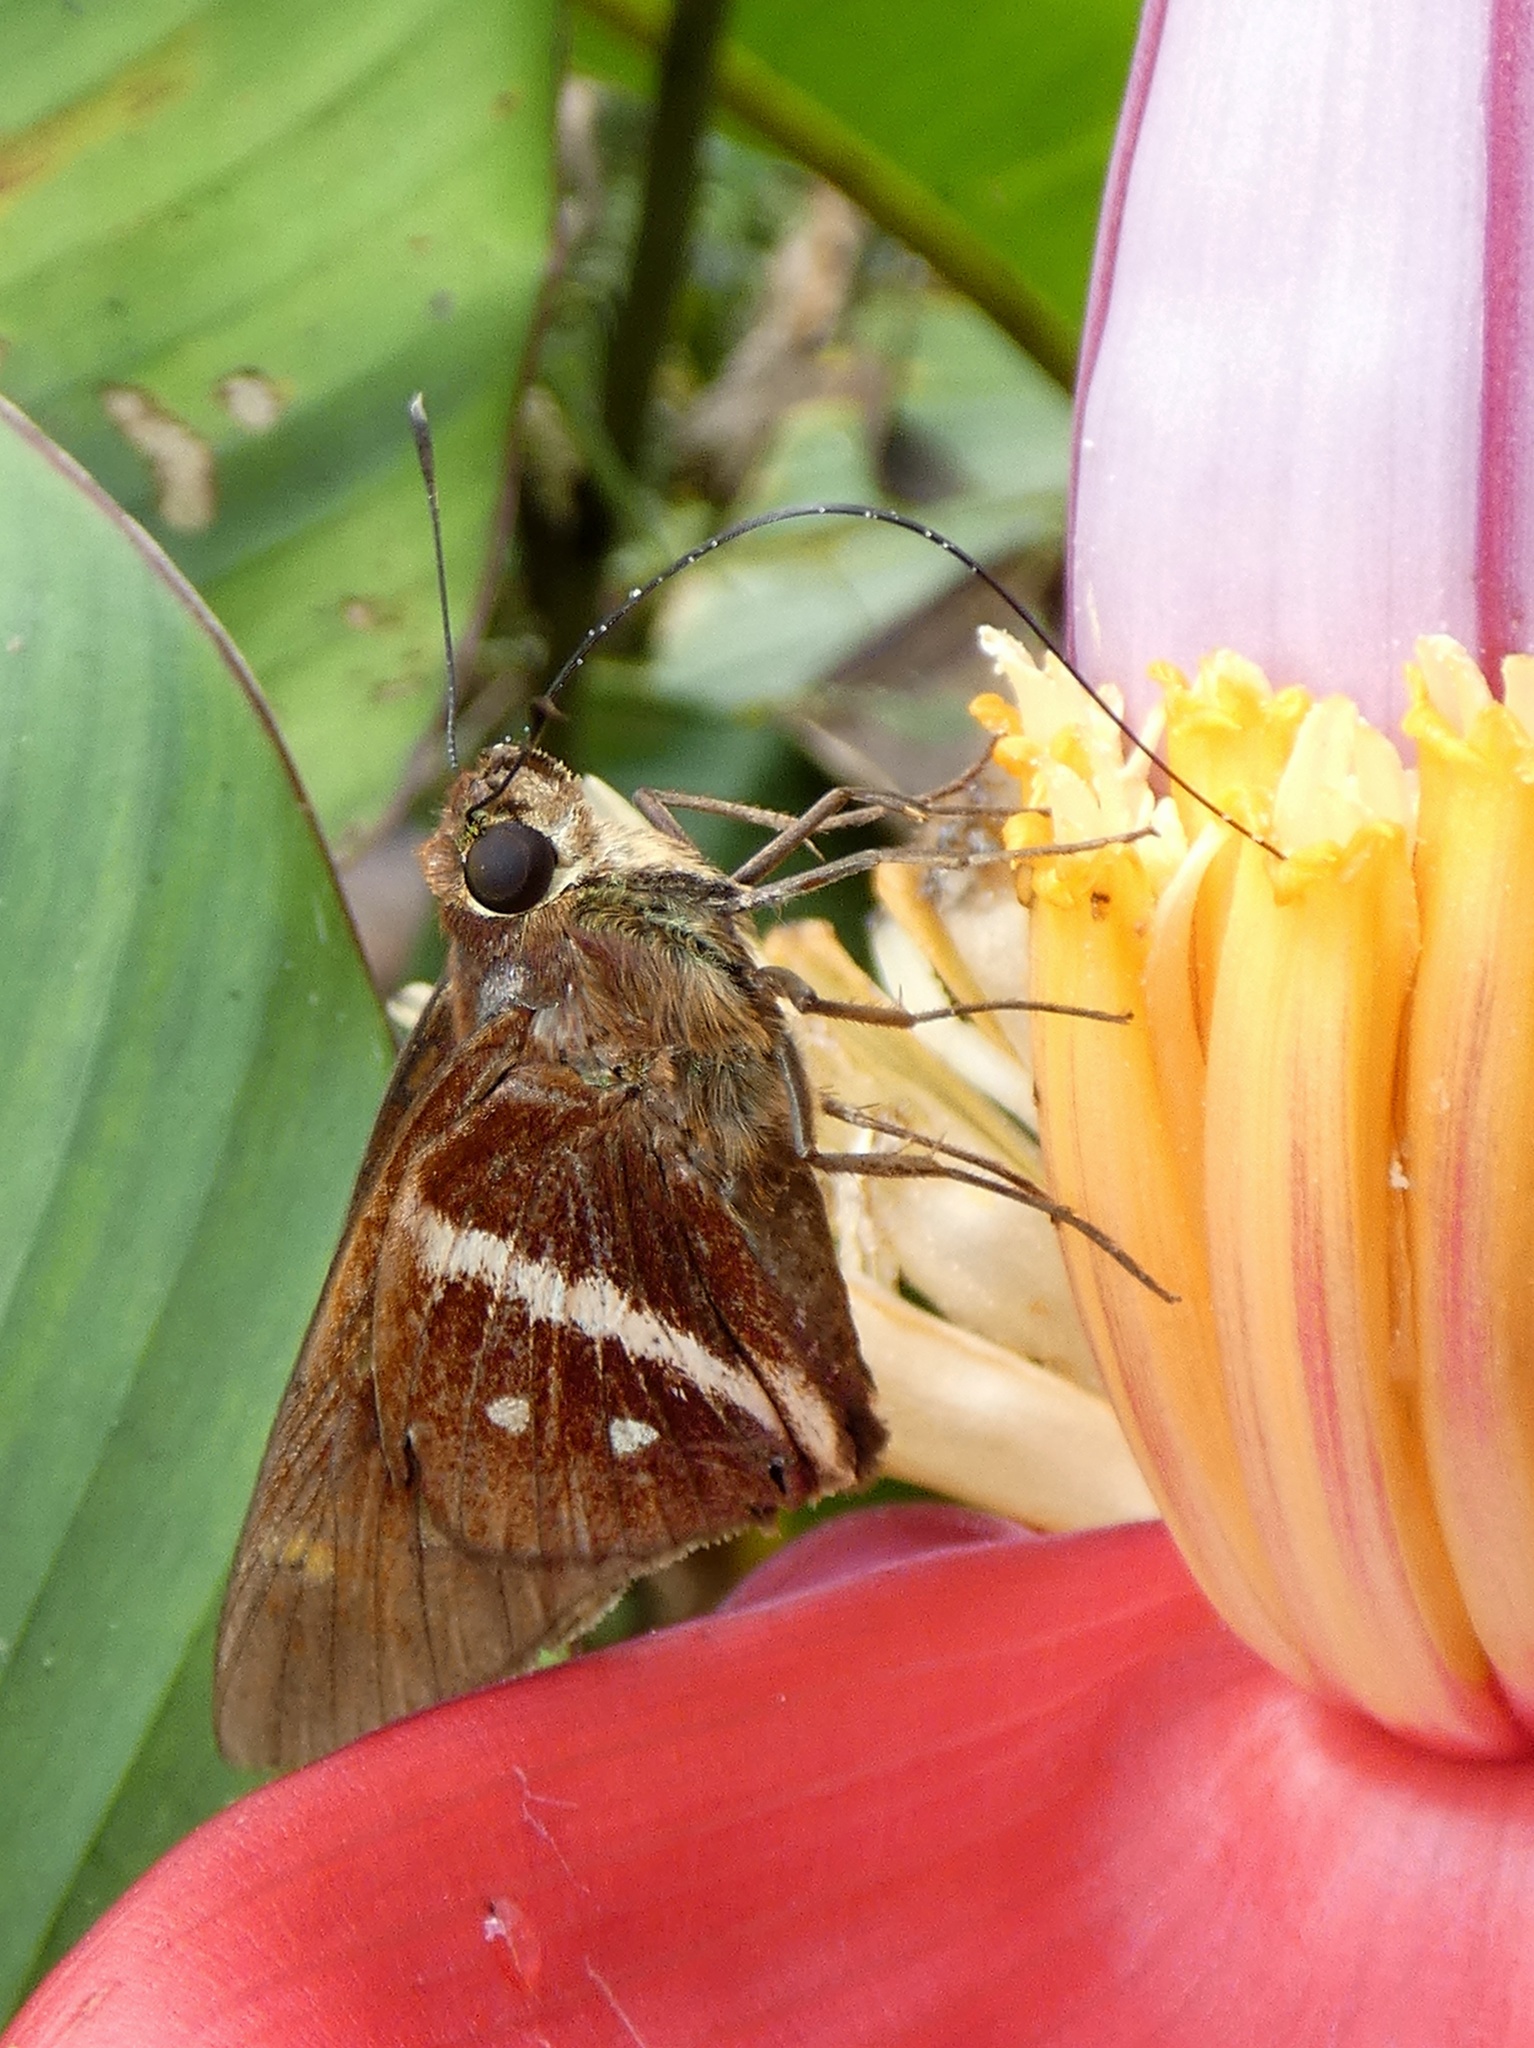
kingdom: Animalia
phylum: Arthropoda
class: Insecta
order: Lepidoptera
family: Hesperiidae
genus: Xeniades
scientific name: Xeniades chalestra
